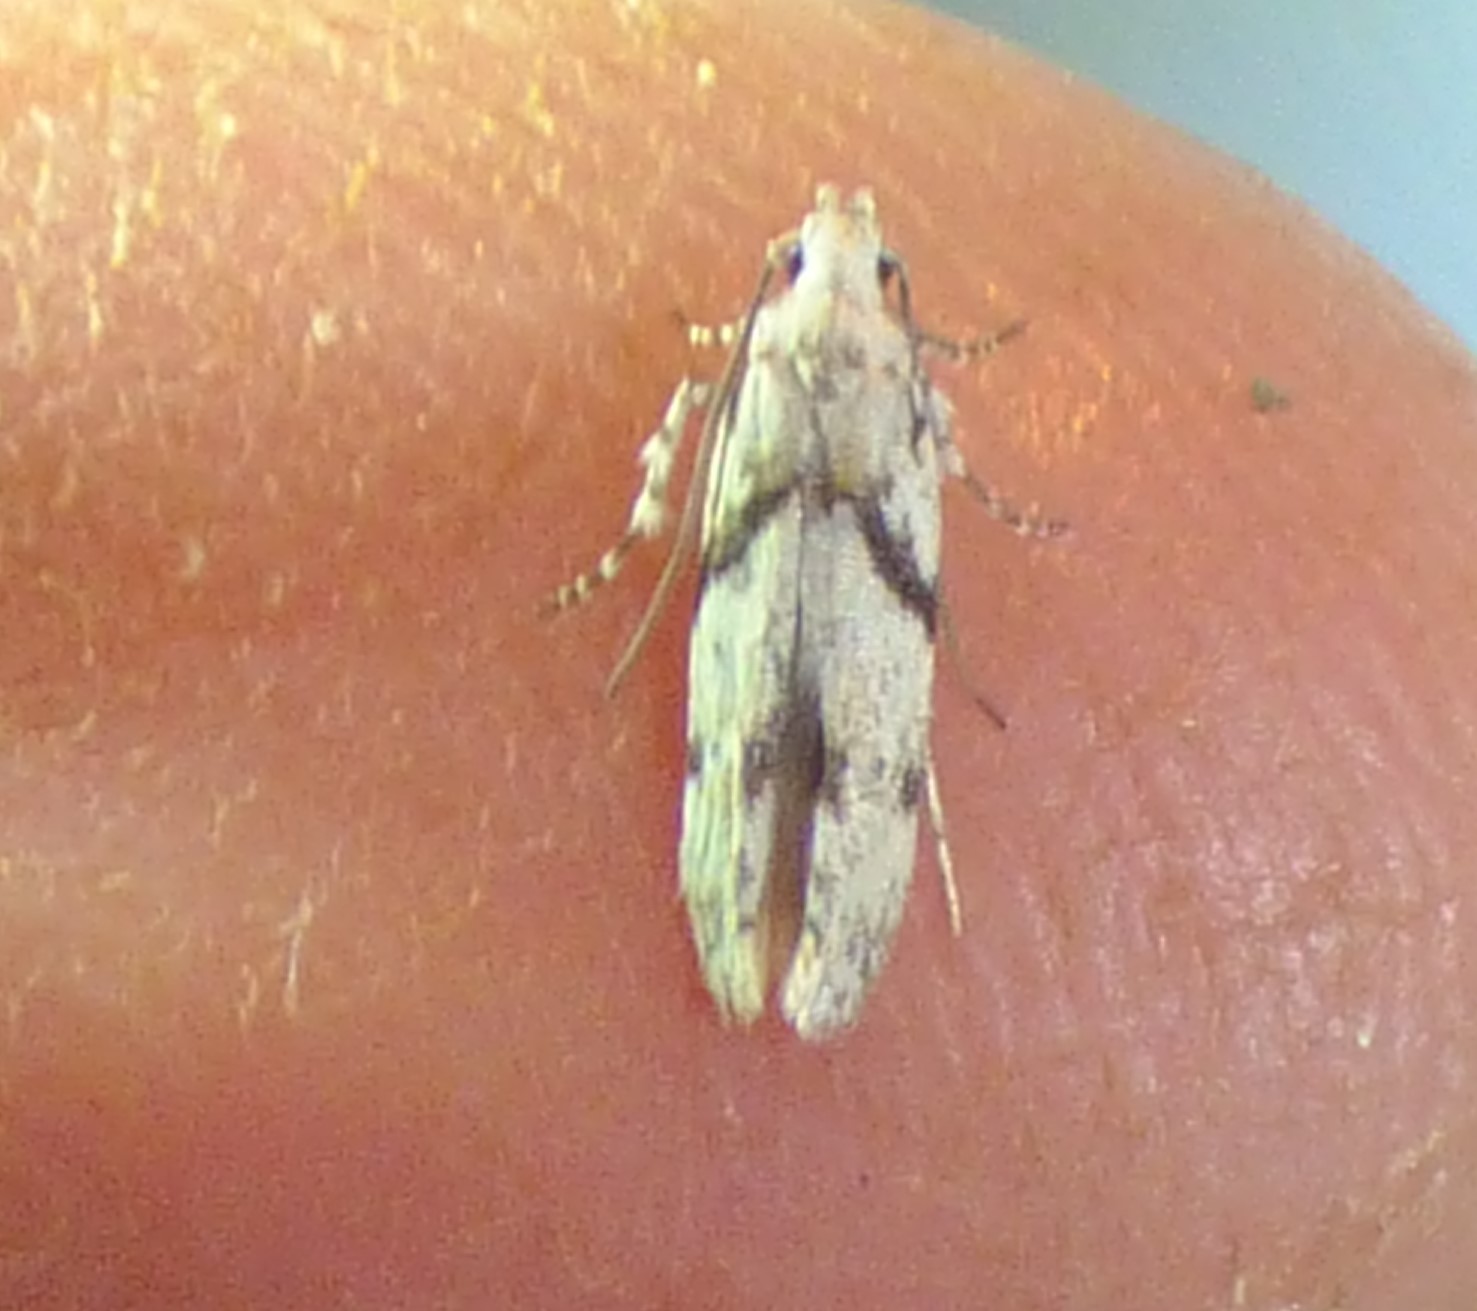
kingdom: Animalia
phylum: Arthropoda
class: Insecta
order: Lepidoptera
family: Gelechiidae
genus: Arogalea
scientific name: Arogalea cristifasciella
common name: White stripe-backed moth
